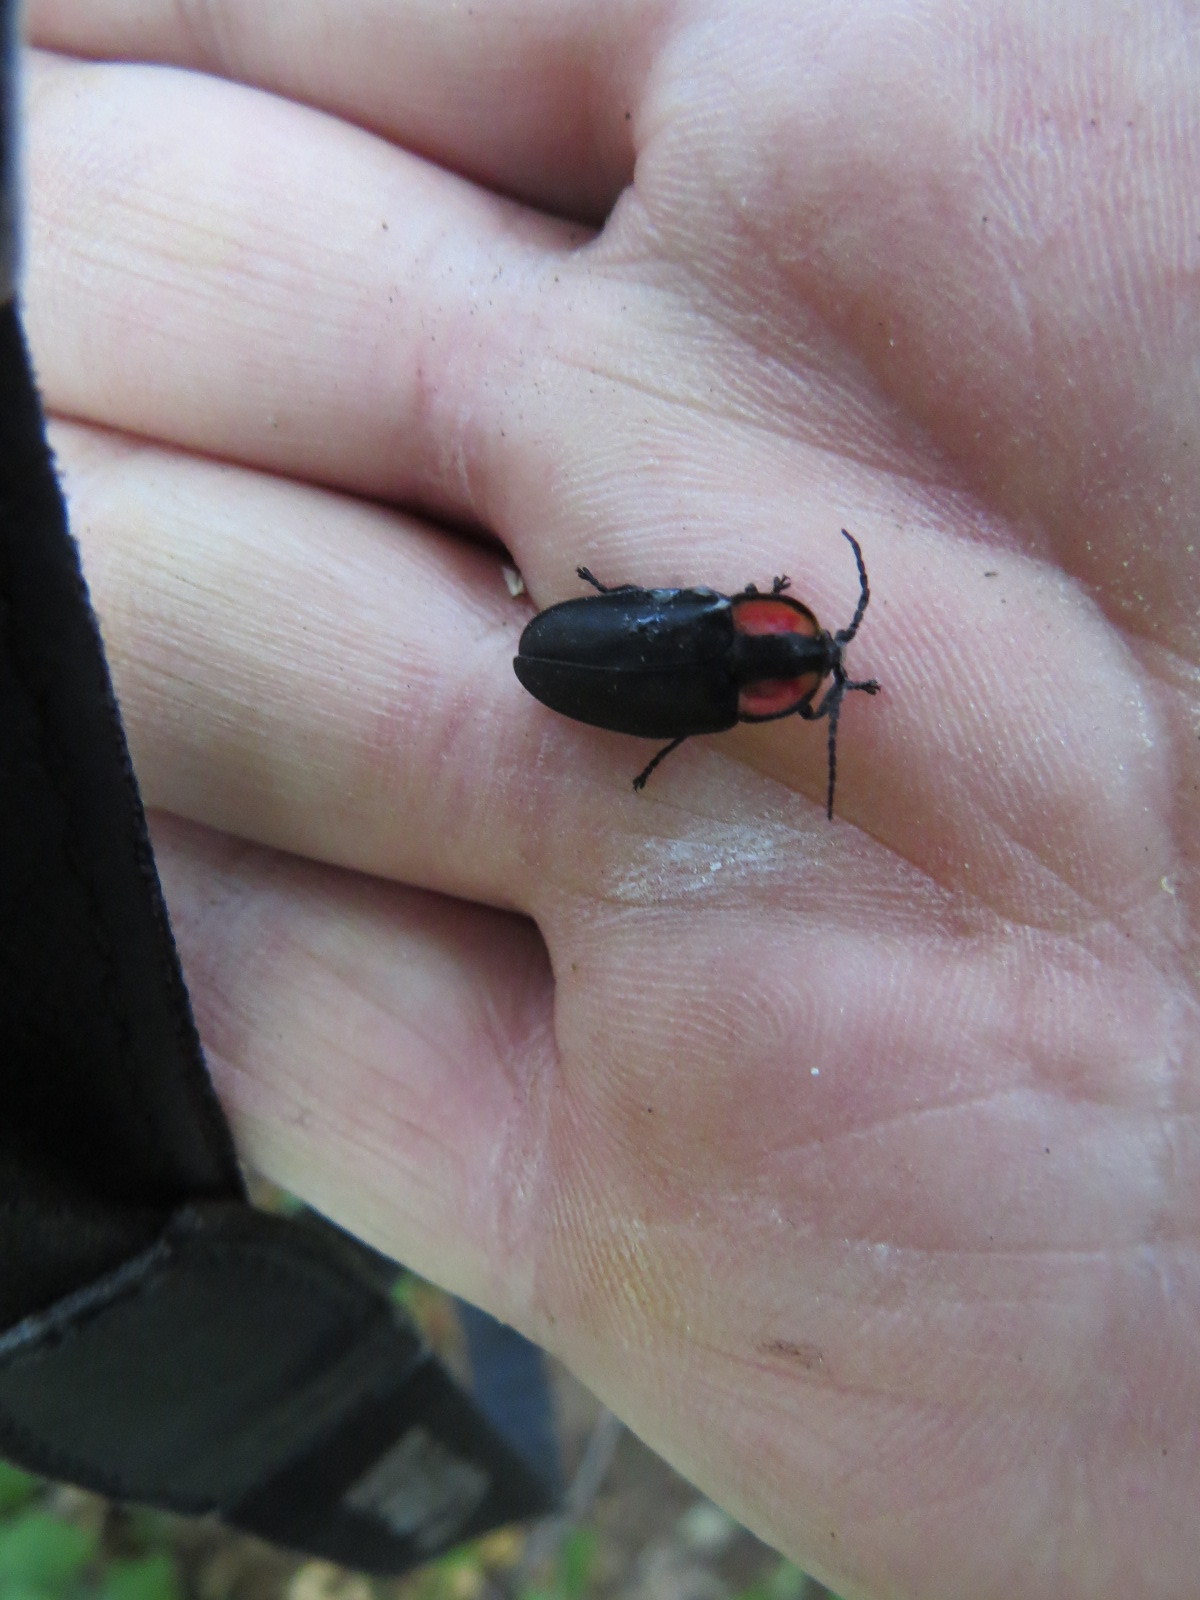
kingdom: Animalia
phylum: Arthropoda
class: Insecta
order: Coleoptera
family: Lampyridae
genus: Ellychnia
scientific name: Ellychnia megista
